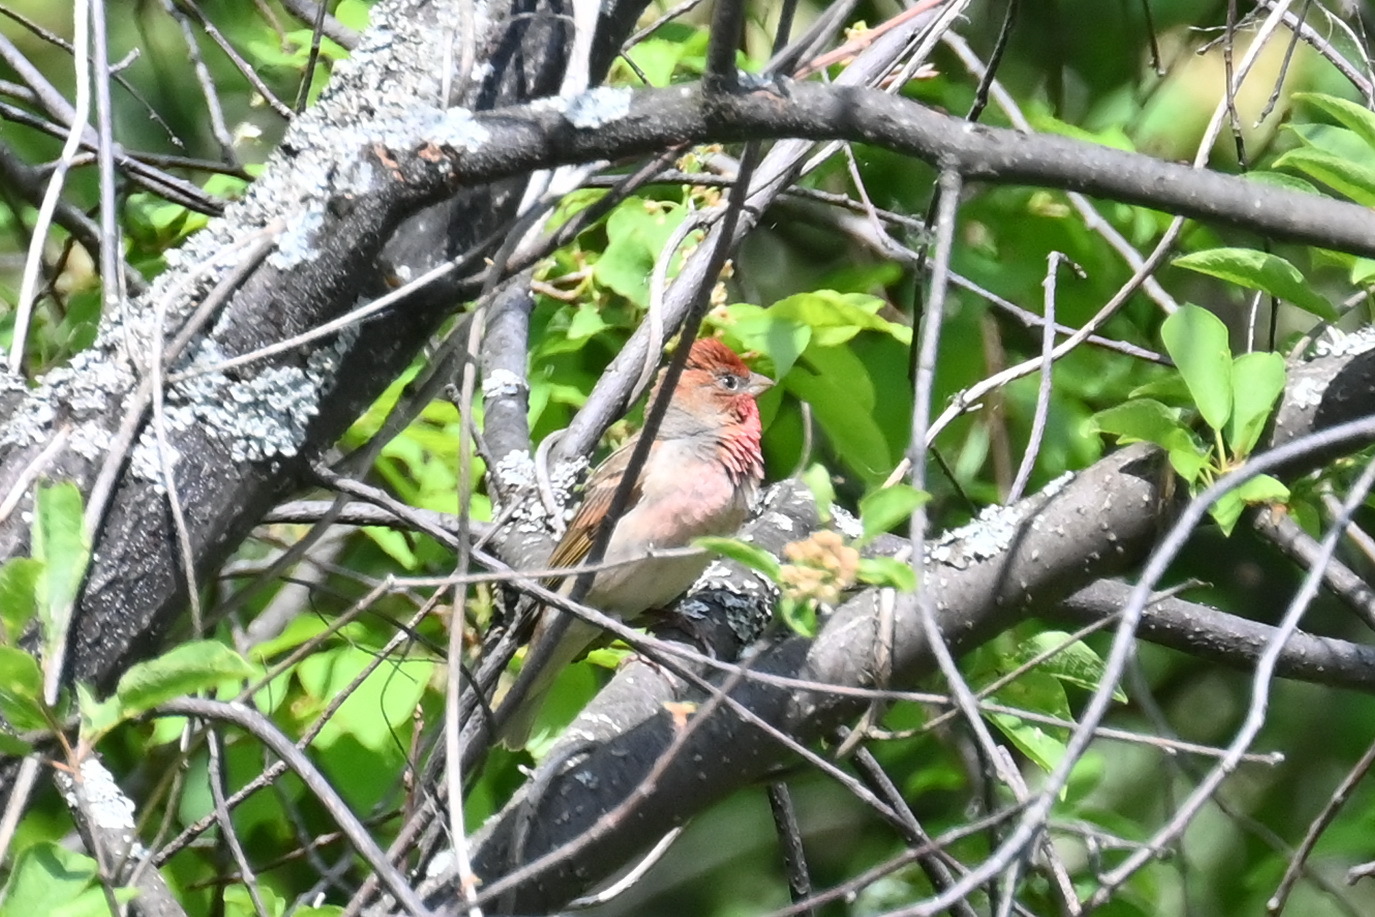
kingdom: Animalia
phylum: Chordata
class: Aves
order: Passeriformes
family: Fringillidae
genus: Carpodacus
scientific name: Carpodacus erythrinus
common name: Common rosefinch
